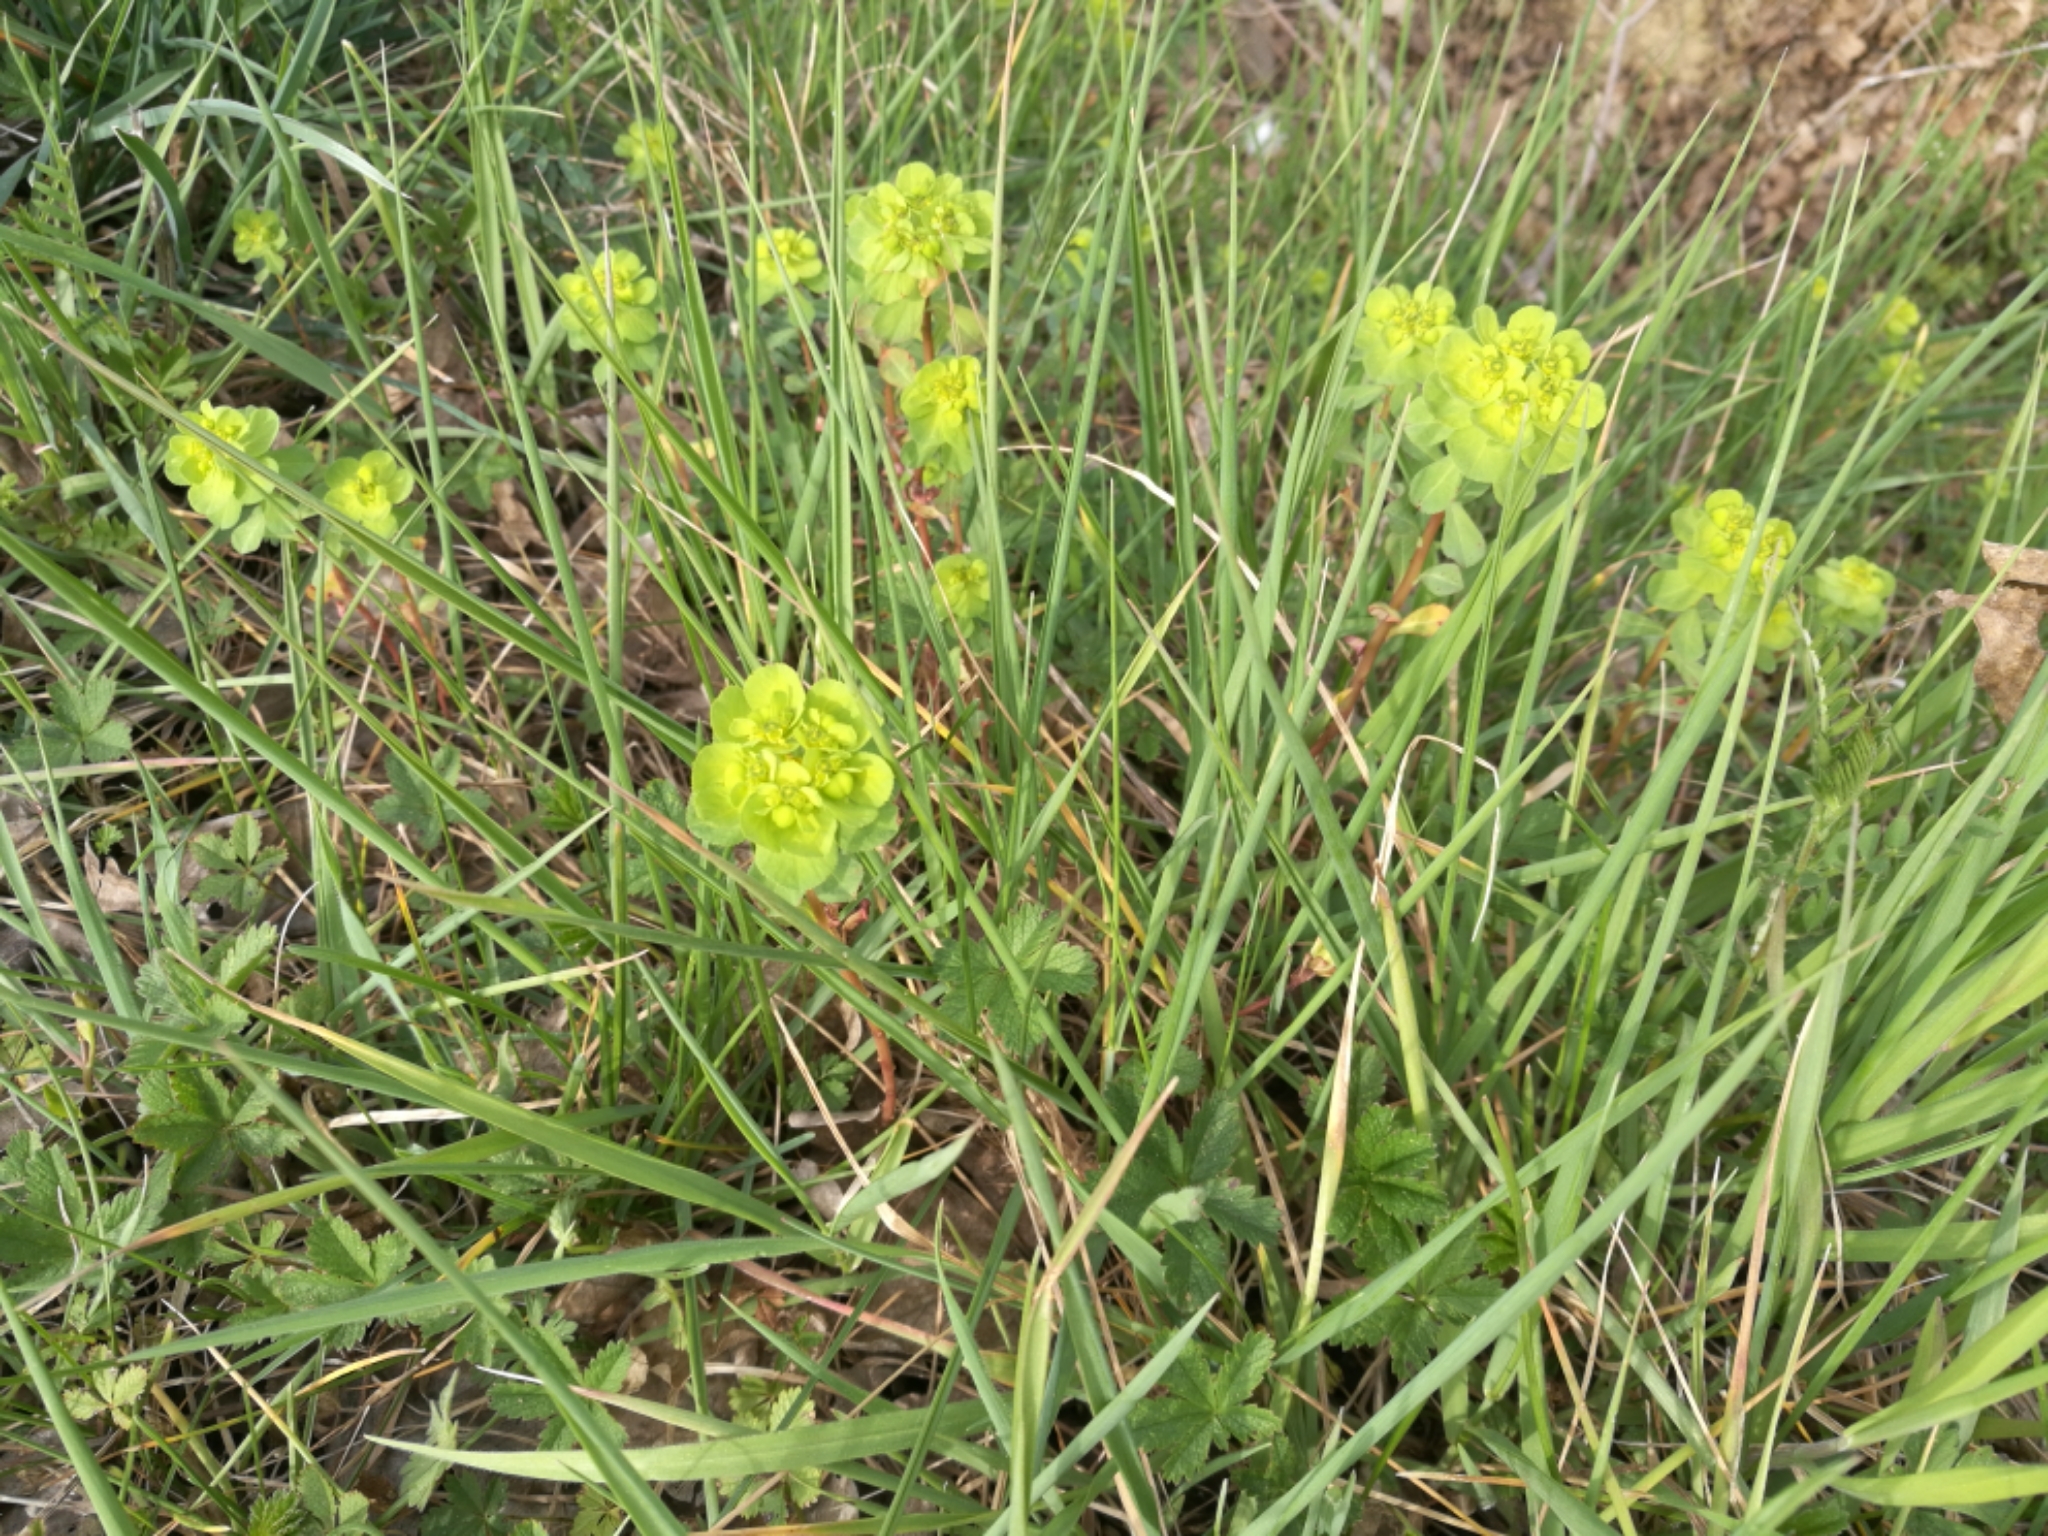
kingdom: Plantae
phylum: Tracheophyta
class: Magnoliopsida
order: Malpighiales
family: Euphorbiaceae
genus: Euphorbia
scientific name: Euphorbia helioscopia
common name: Sun spurge
